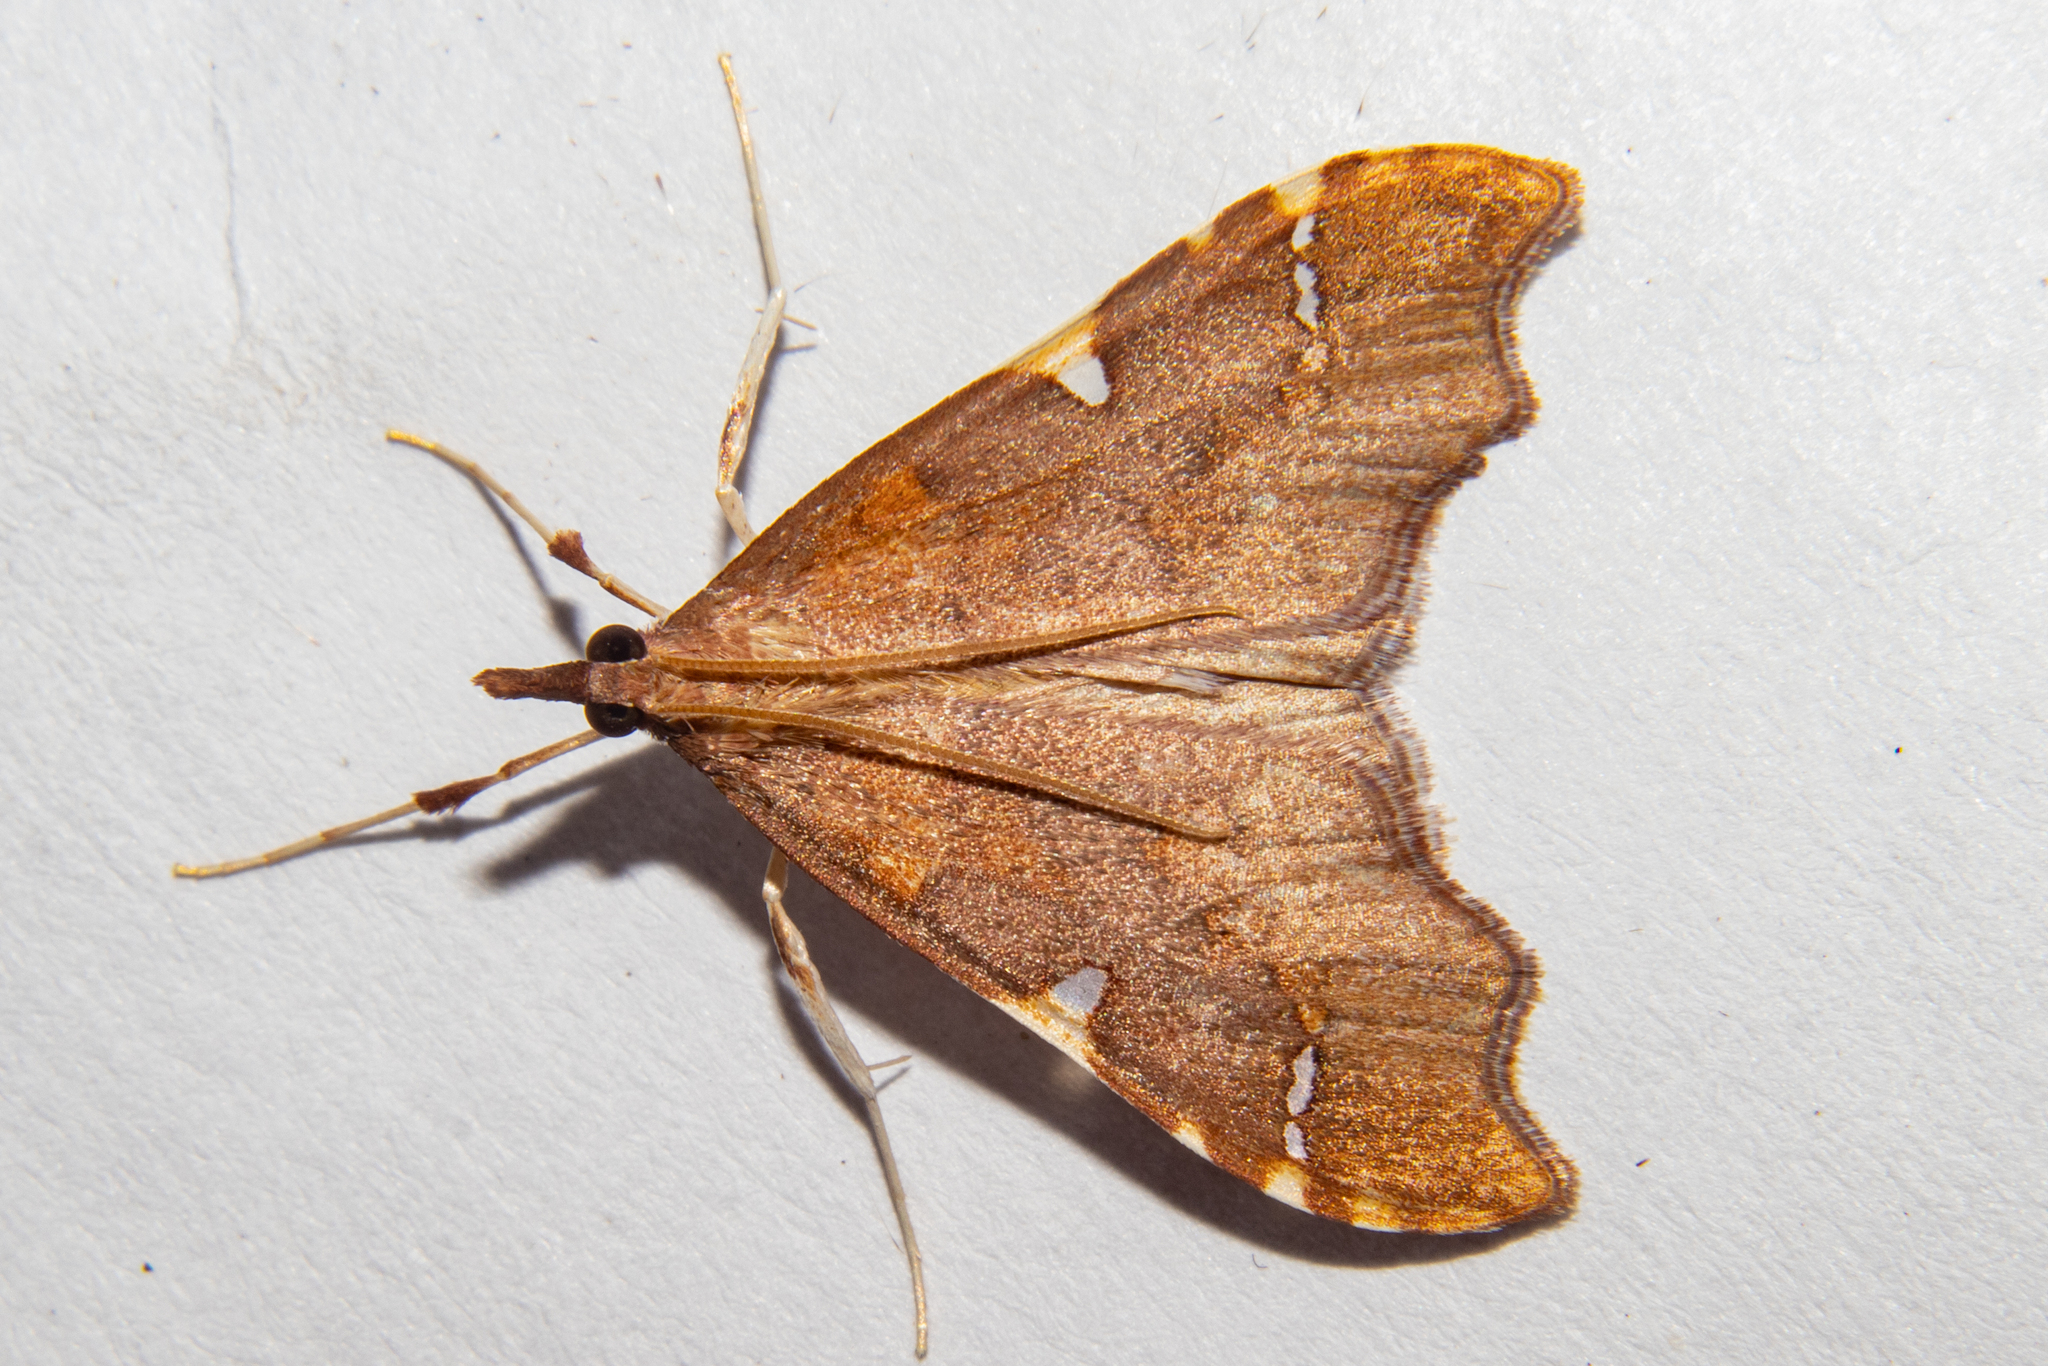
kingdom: Animalia
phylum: Arthropoda
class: Insecta
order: Lepidoptera
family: Crambidae
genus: Deana
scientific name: Deana hybreasalis
